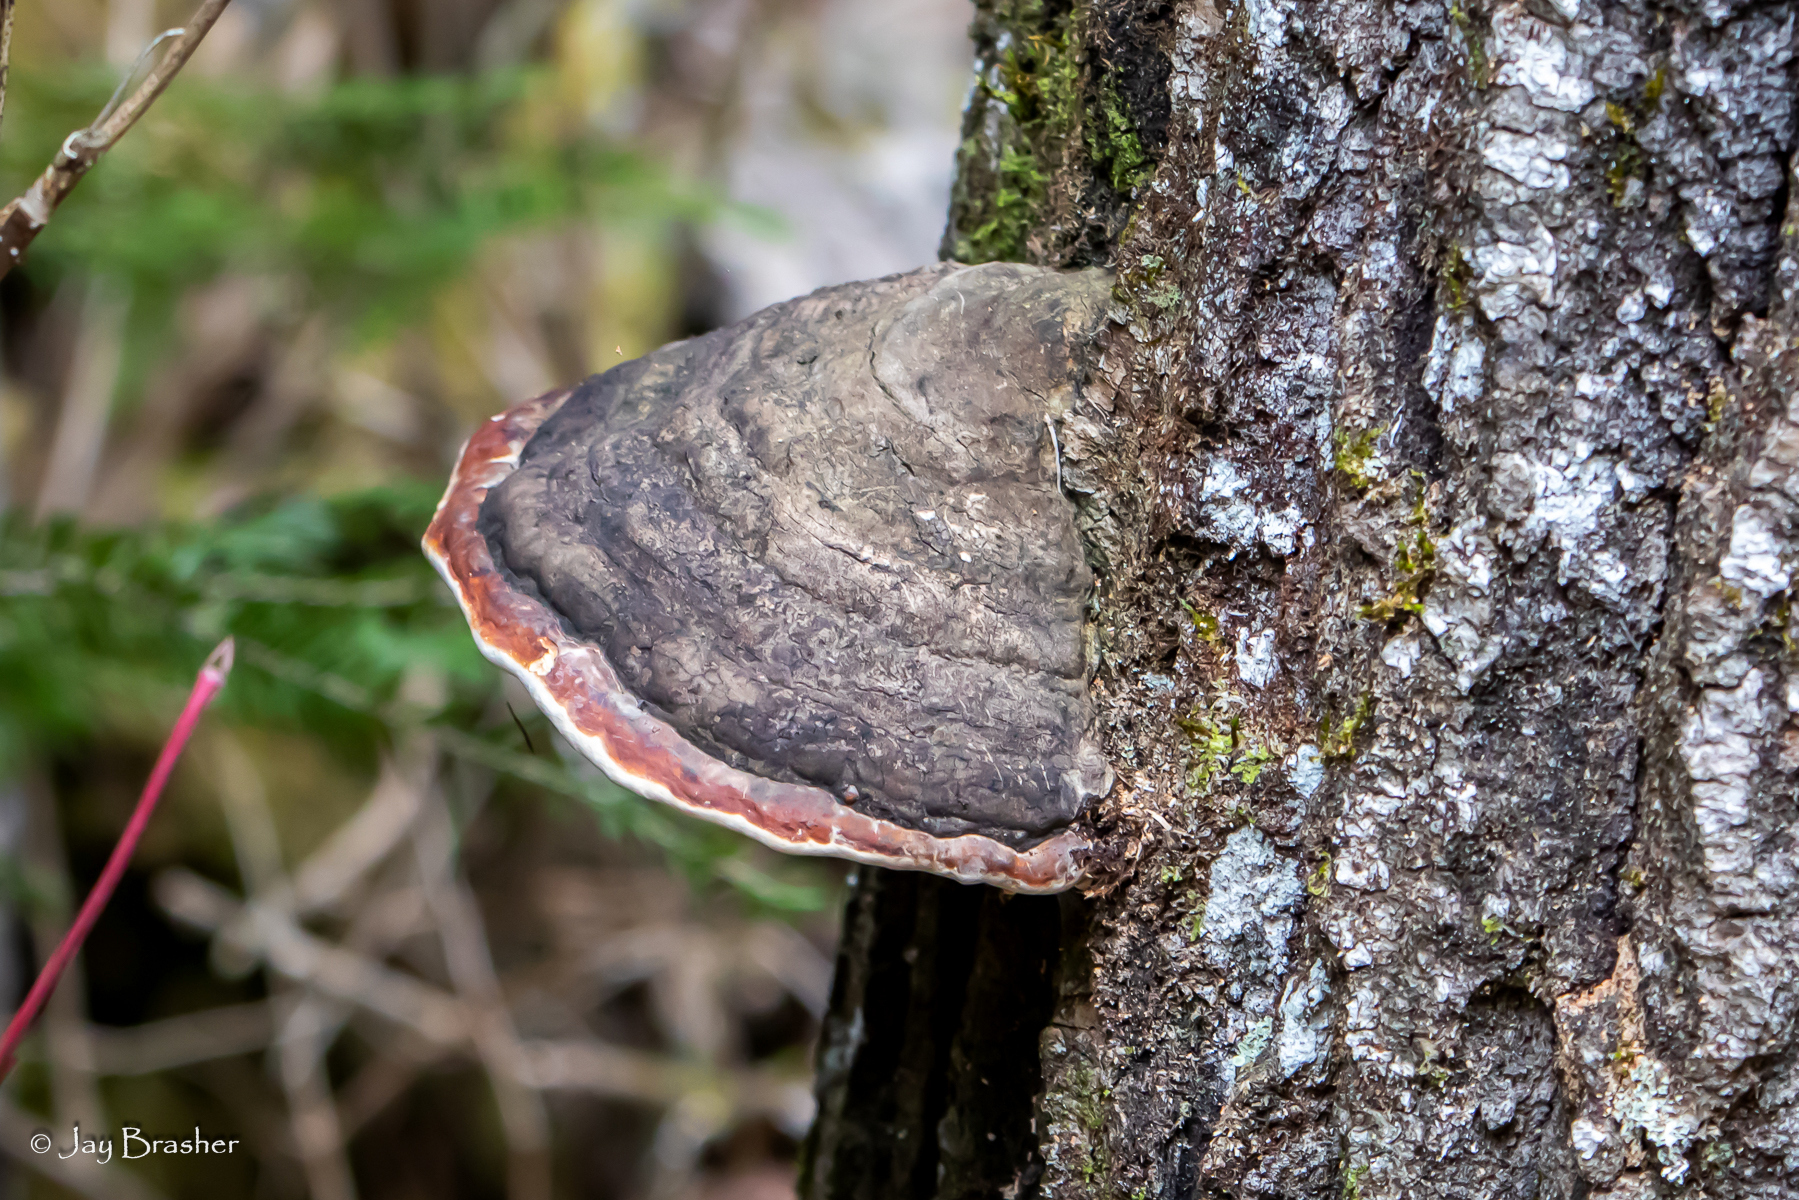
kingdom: Fungi
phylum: Basidiomycota
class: Agaricomycetes
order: Polyporales
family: Fomitopsidaceae
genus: Fomitopsis
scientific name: Fomitopsis mounceae
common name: Northern red belt
